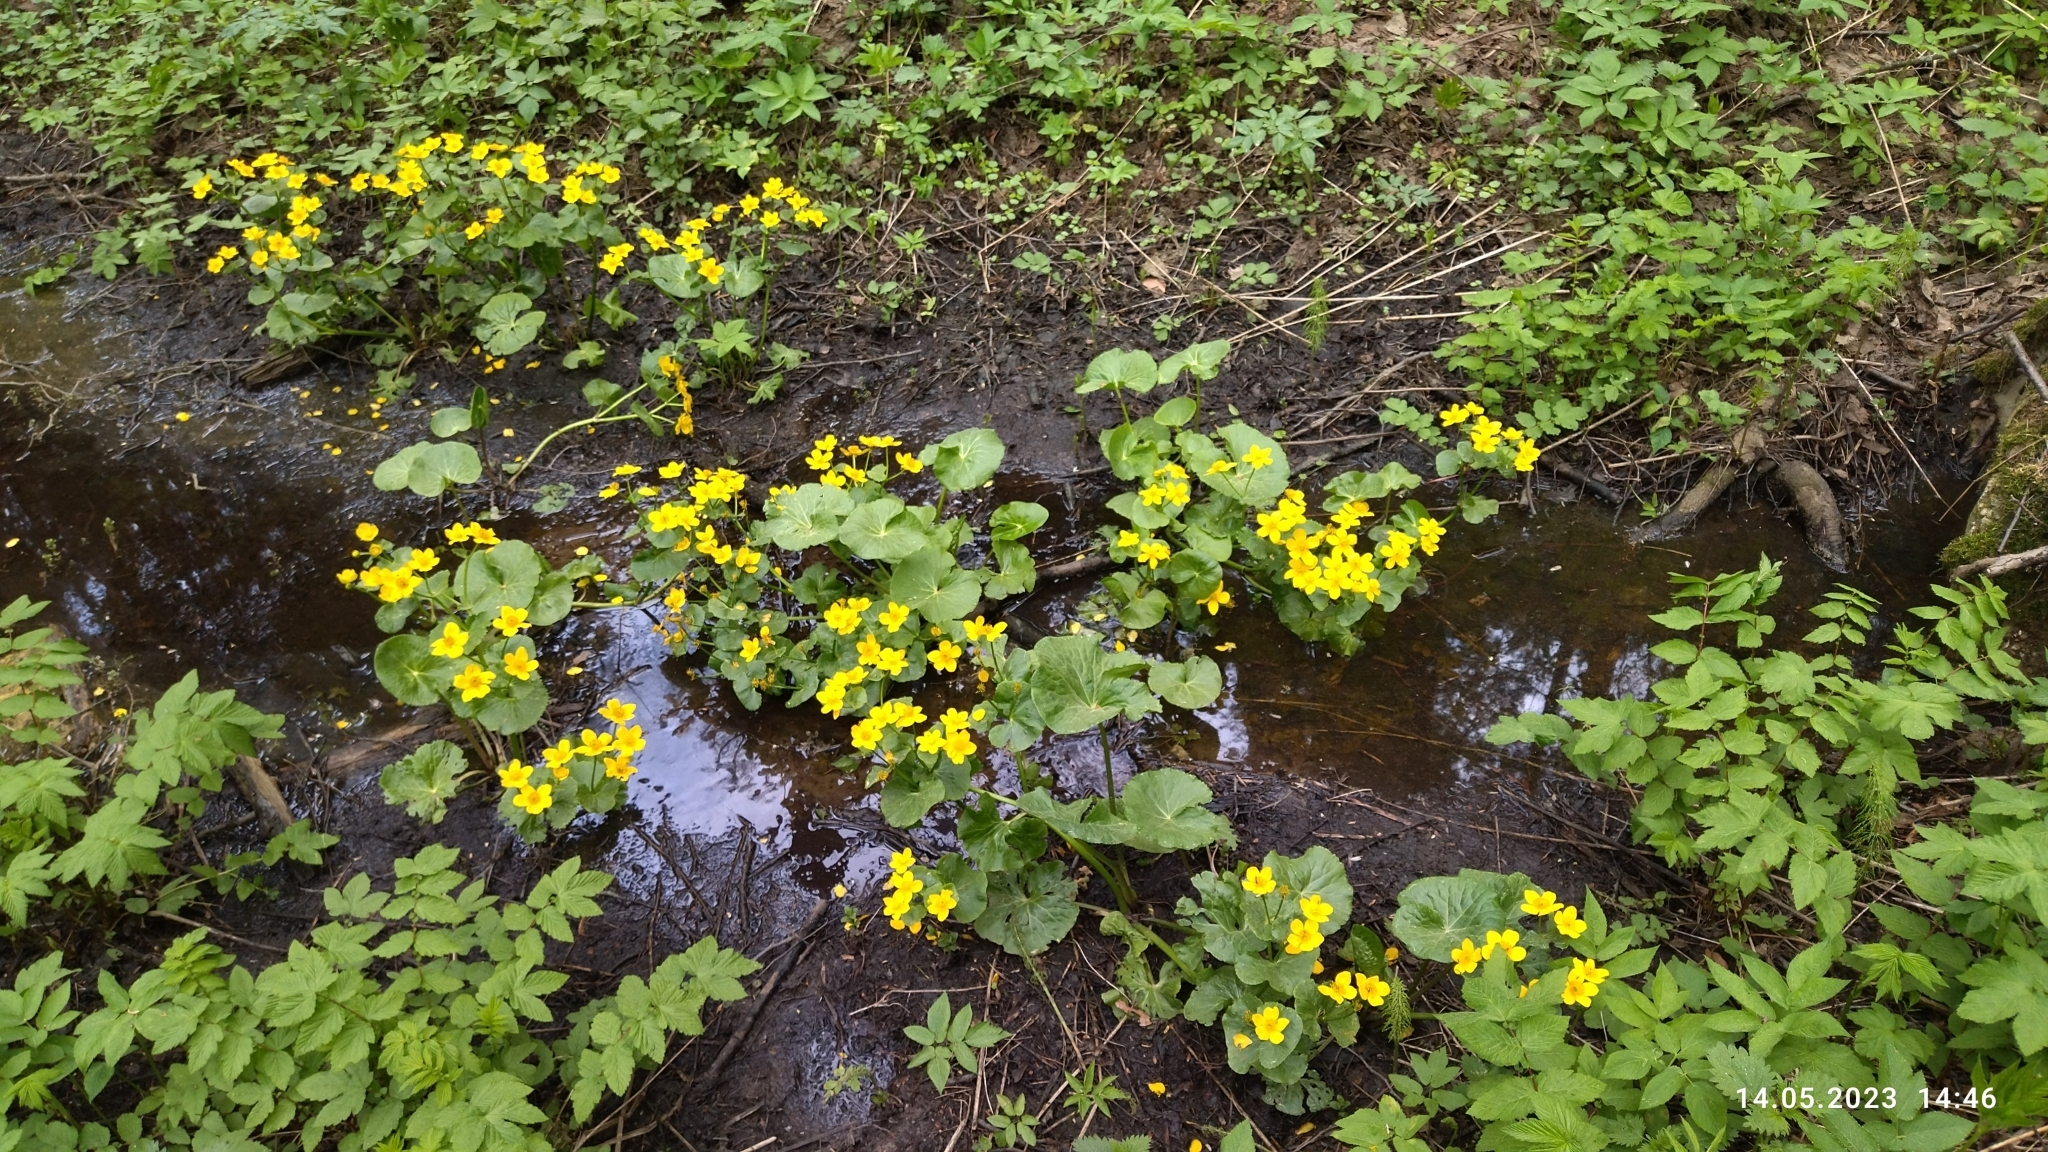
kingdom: Plantae
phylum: Tracheophyta
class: Magnoliopsida
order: Ranunculales
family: Ranunculaceae
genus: Caltha
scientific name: Caltha palustris
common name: Marsh marigold
